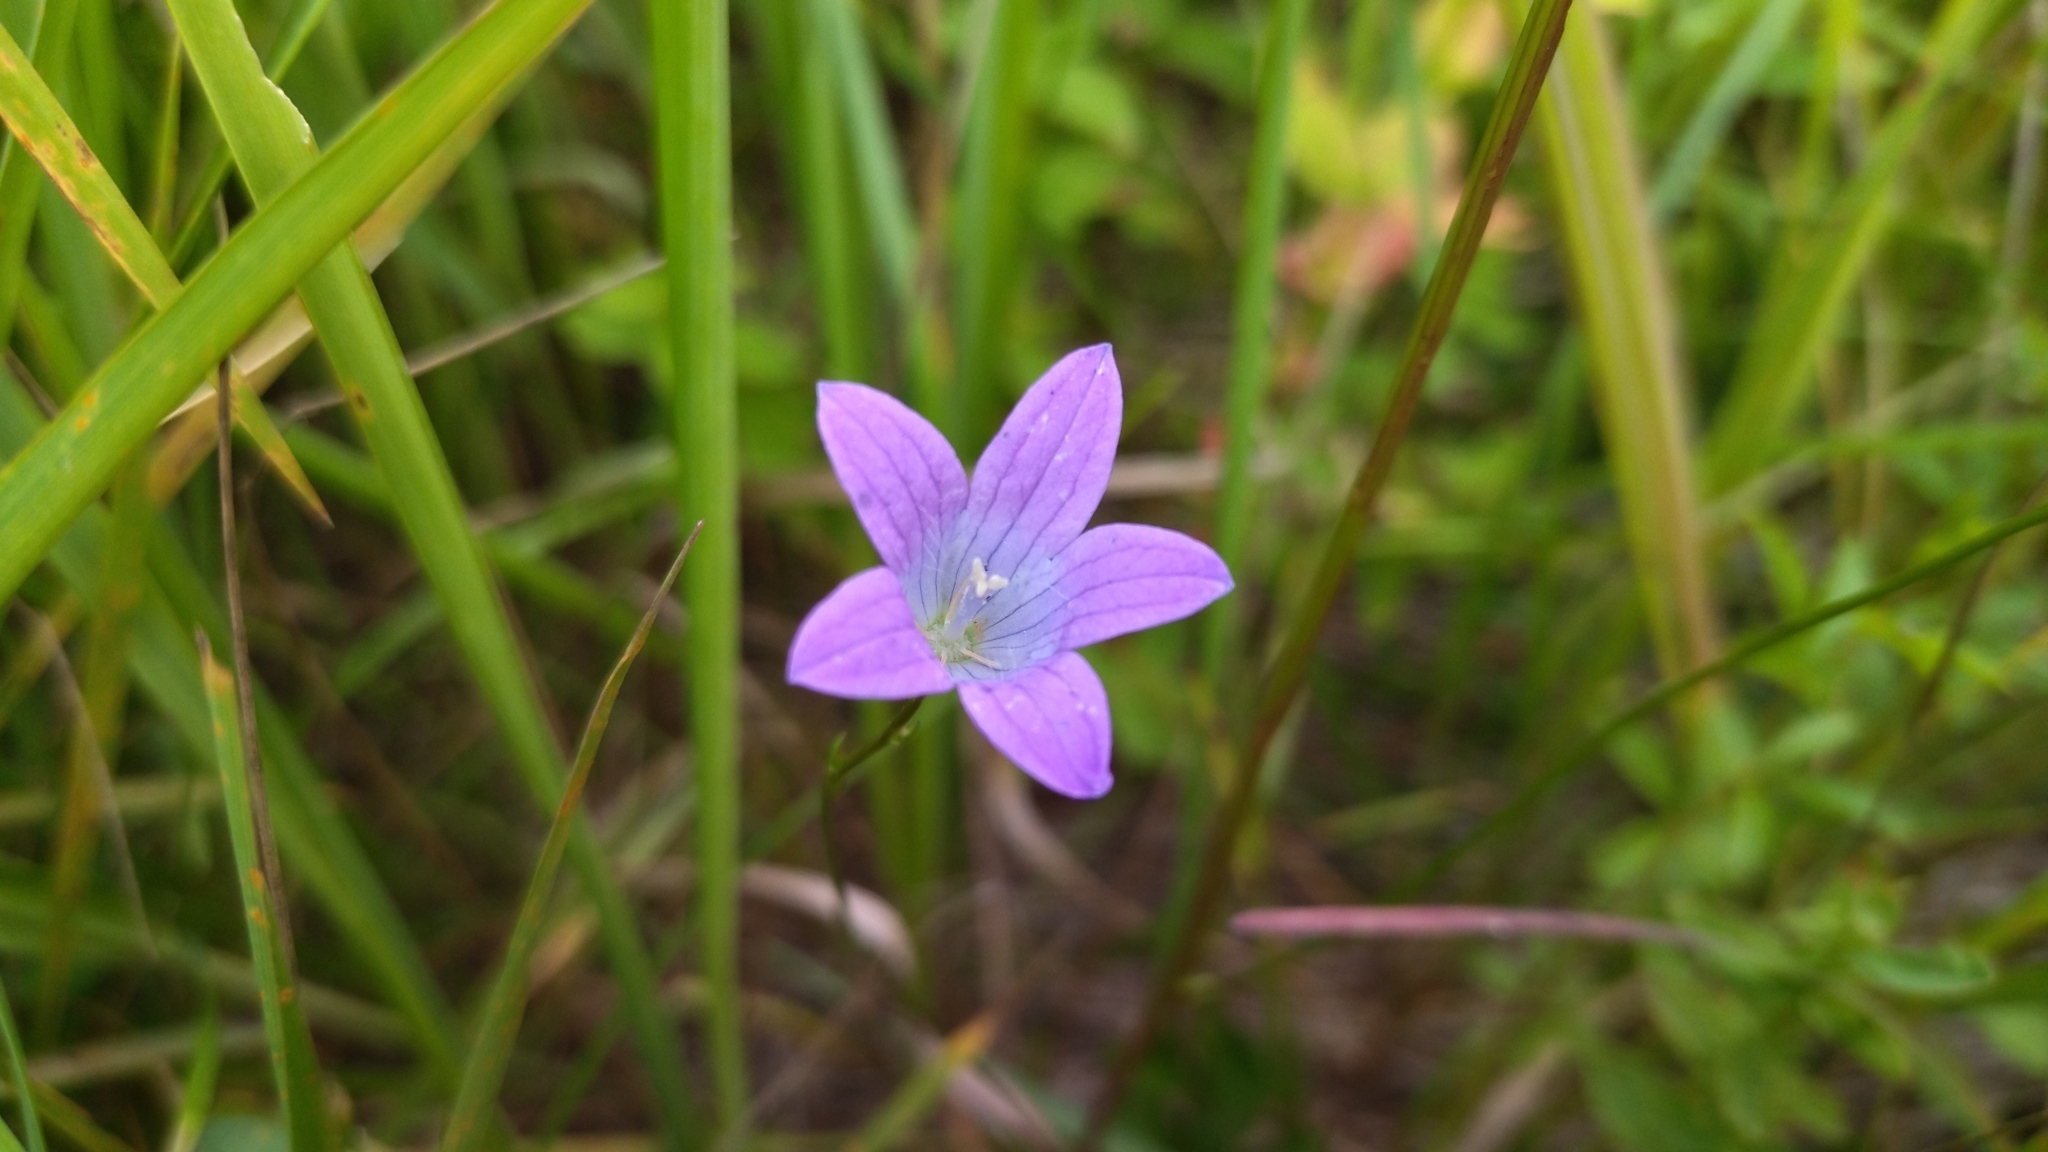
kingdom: Plantae
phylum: Tracheophyta
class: Magnoliopsida
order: Asterales
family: Campanulaceae
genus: Campanula
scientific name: Campanula patula
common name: Spreading bellflower
